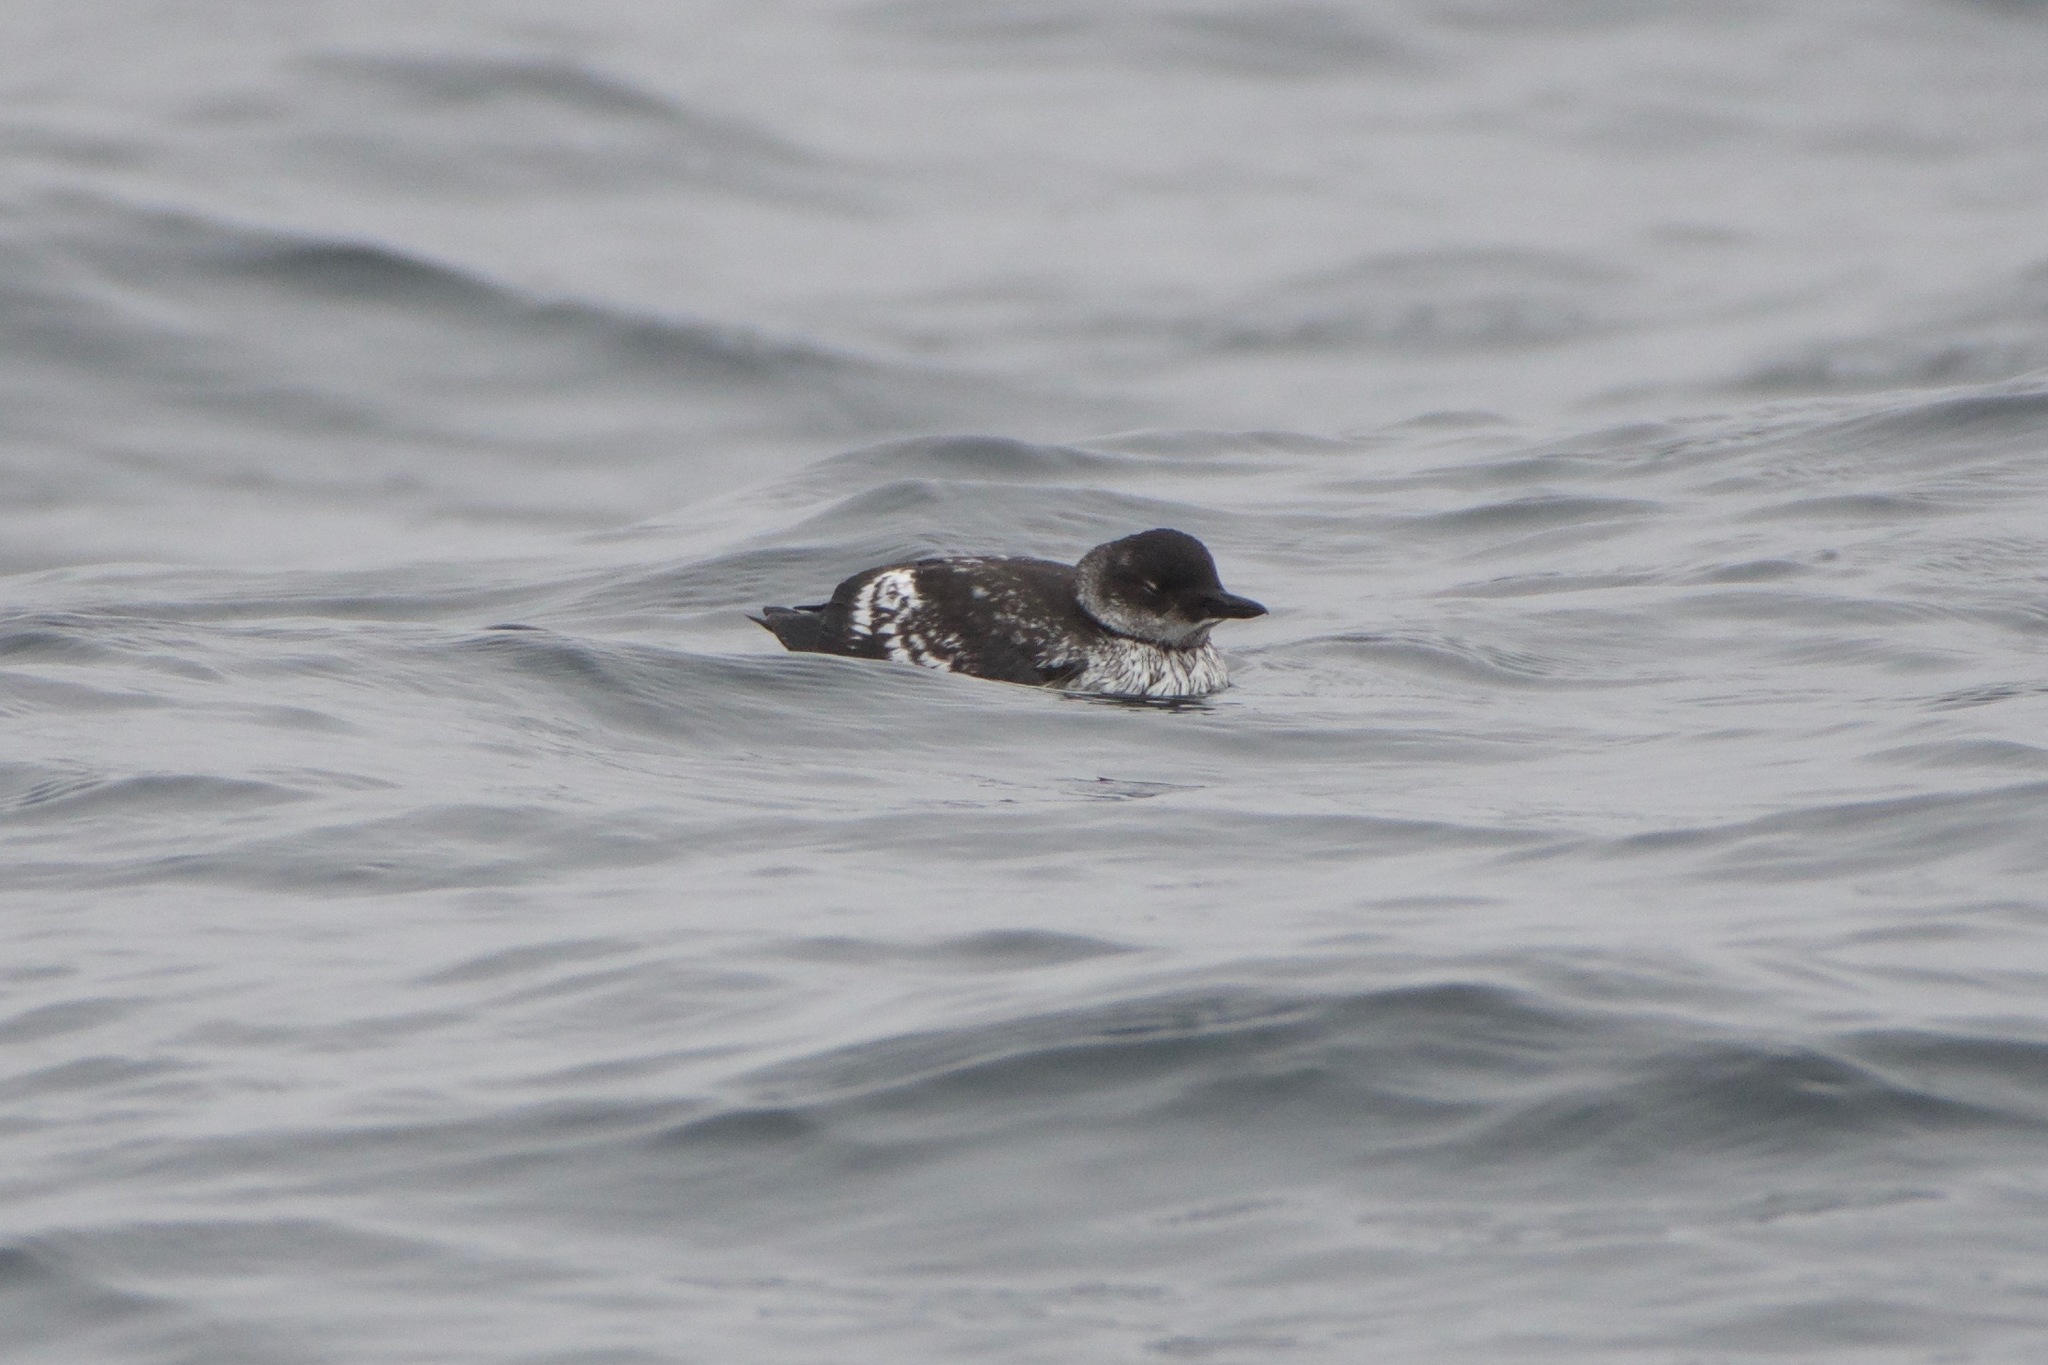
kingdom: Animalia
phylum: Chordata
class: Aves
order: Charadriiformes
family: Alcidae
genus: Cepphus
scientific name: Cepphus columba
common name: Pigeon guillemot
